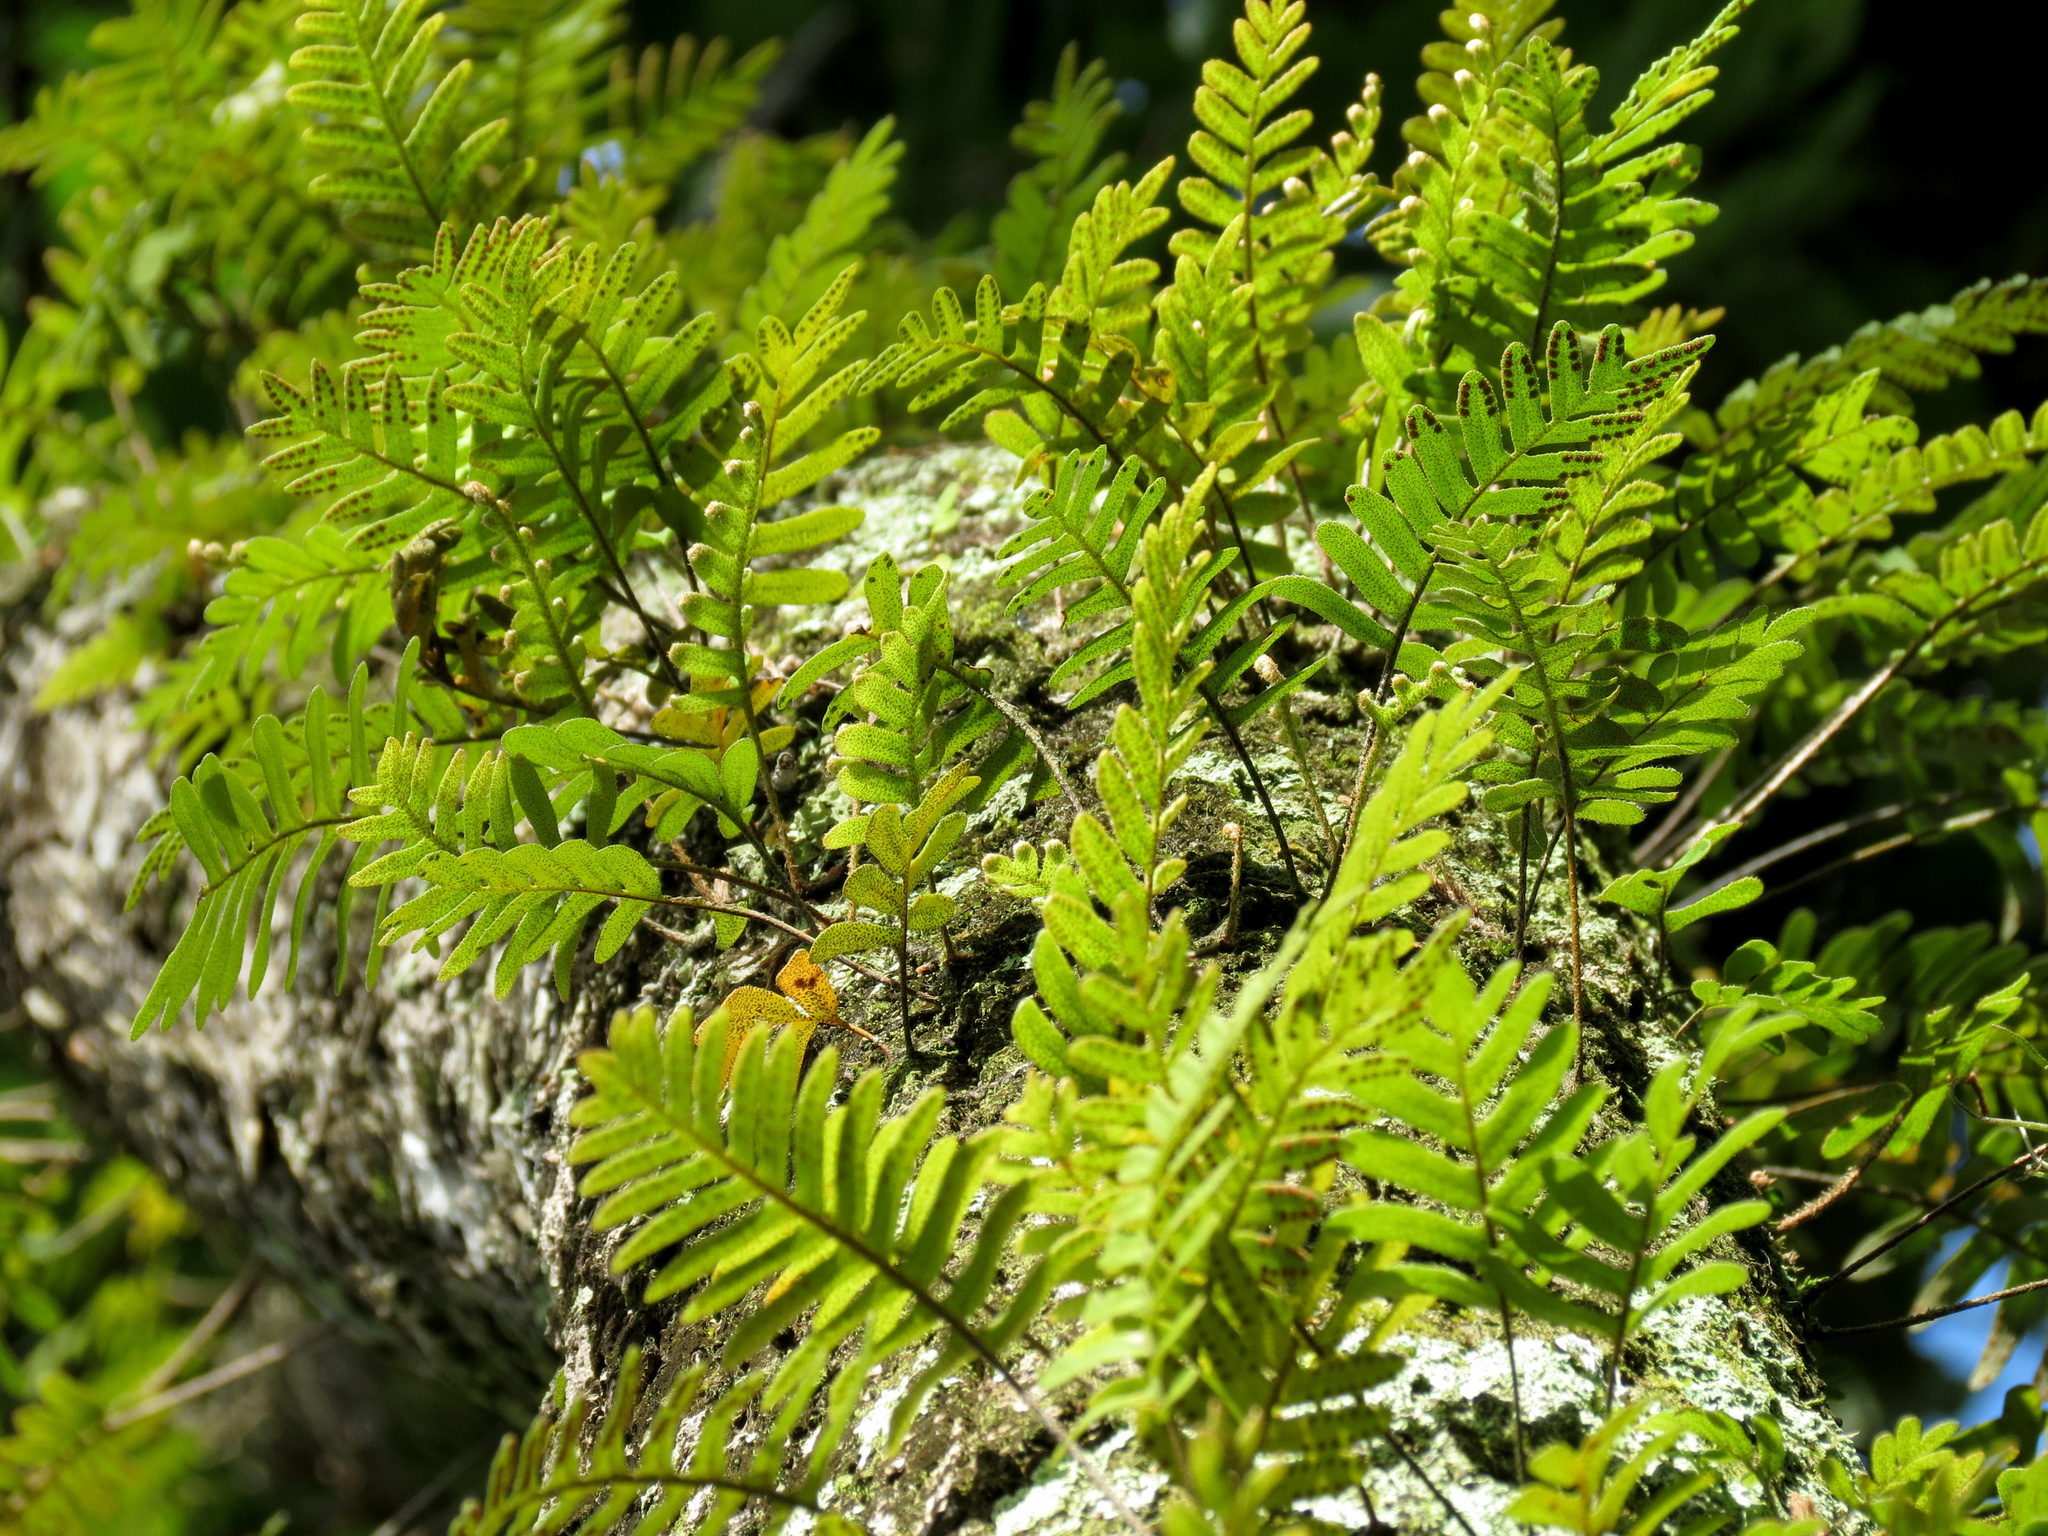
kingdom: Plantae
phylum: Tracheophyta
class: Polypodiopsida
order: Polypodiales
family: Polypodiaceae
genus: Pleopeltis
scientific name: Pleopeltis michauxiana
